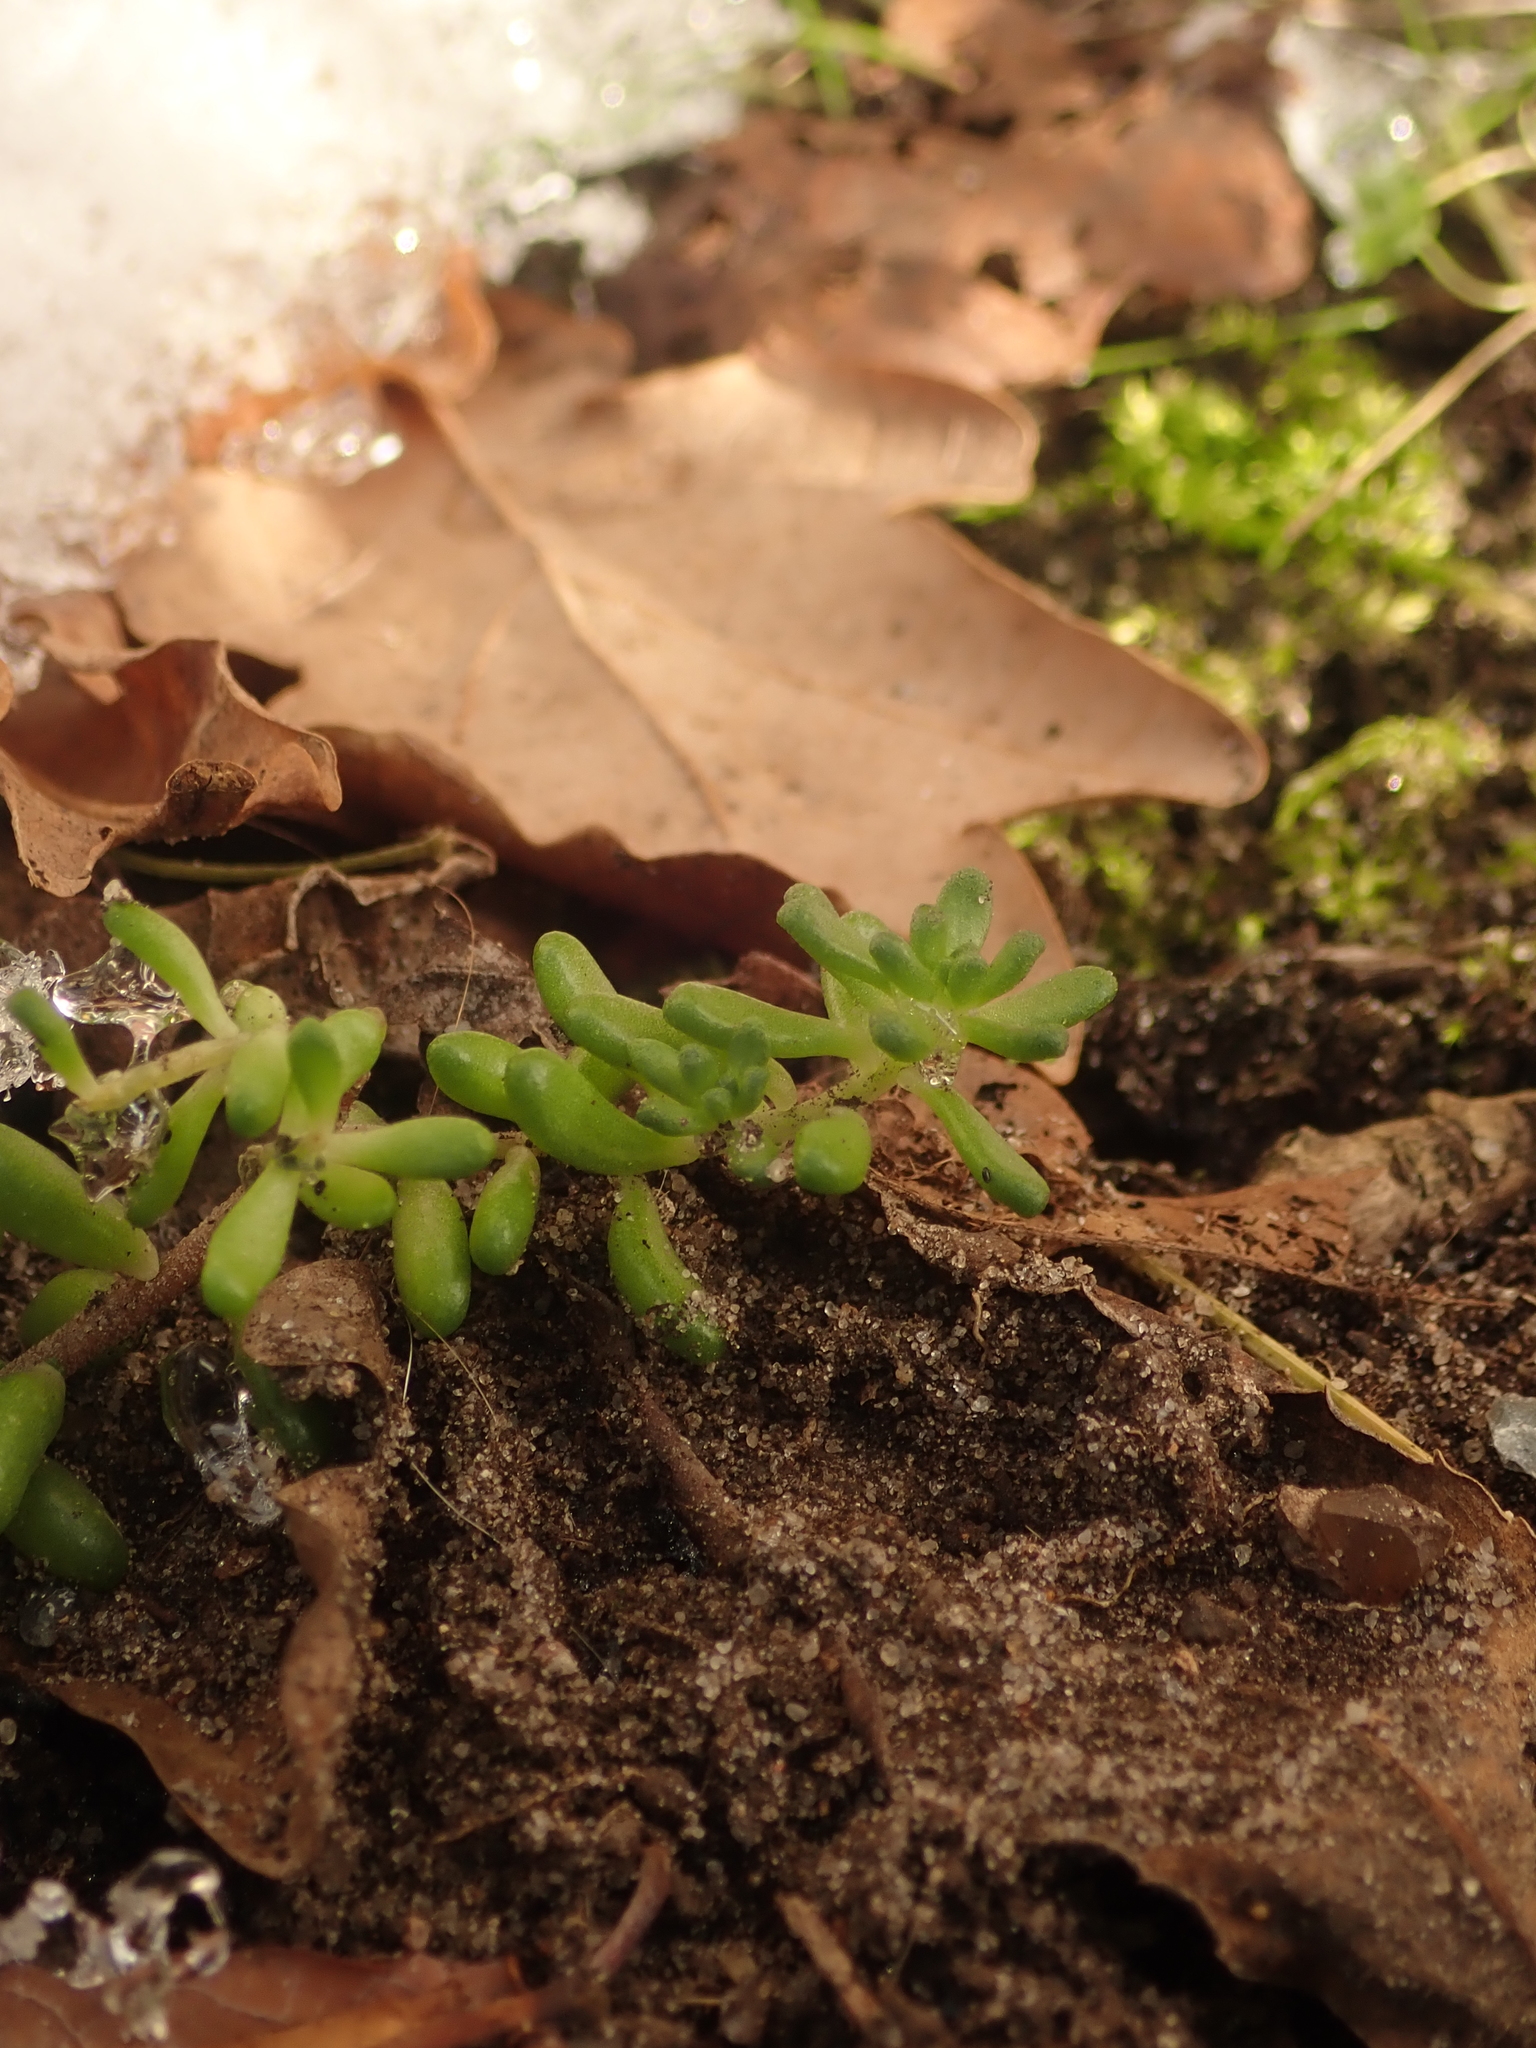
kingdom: Plantae
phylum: Tracheophyta
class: Magnoliopsida
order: Saxifragales
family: Crassulaceae
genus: Sedum
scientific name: Sedum album
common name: White stonecrop
